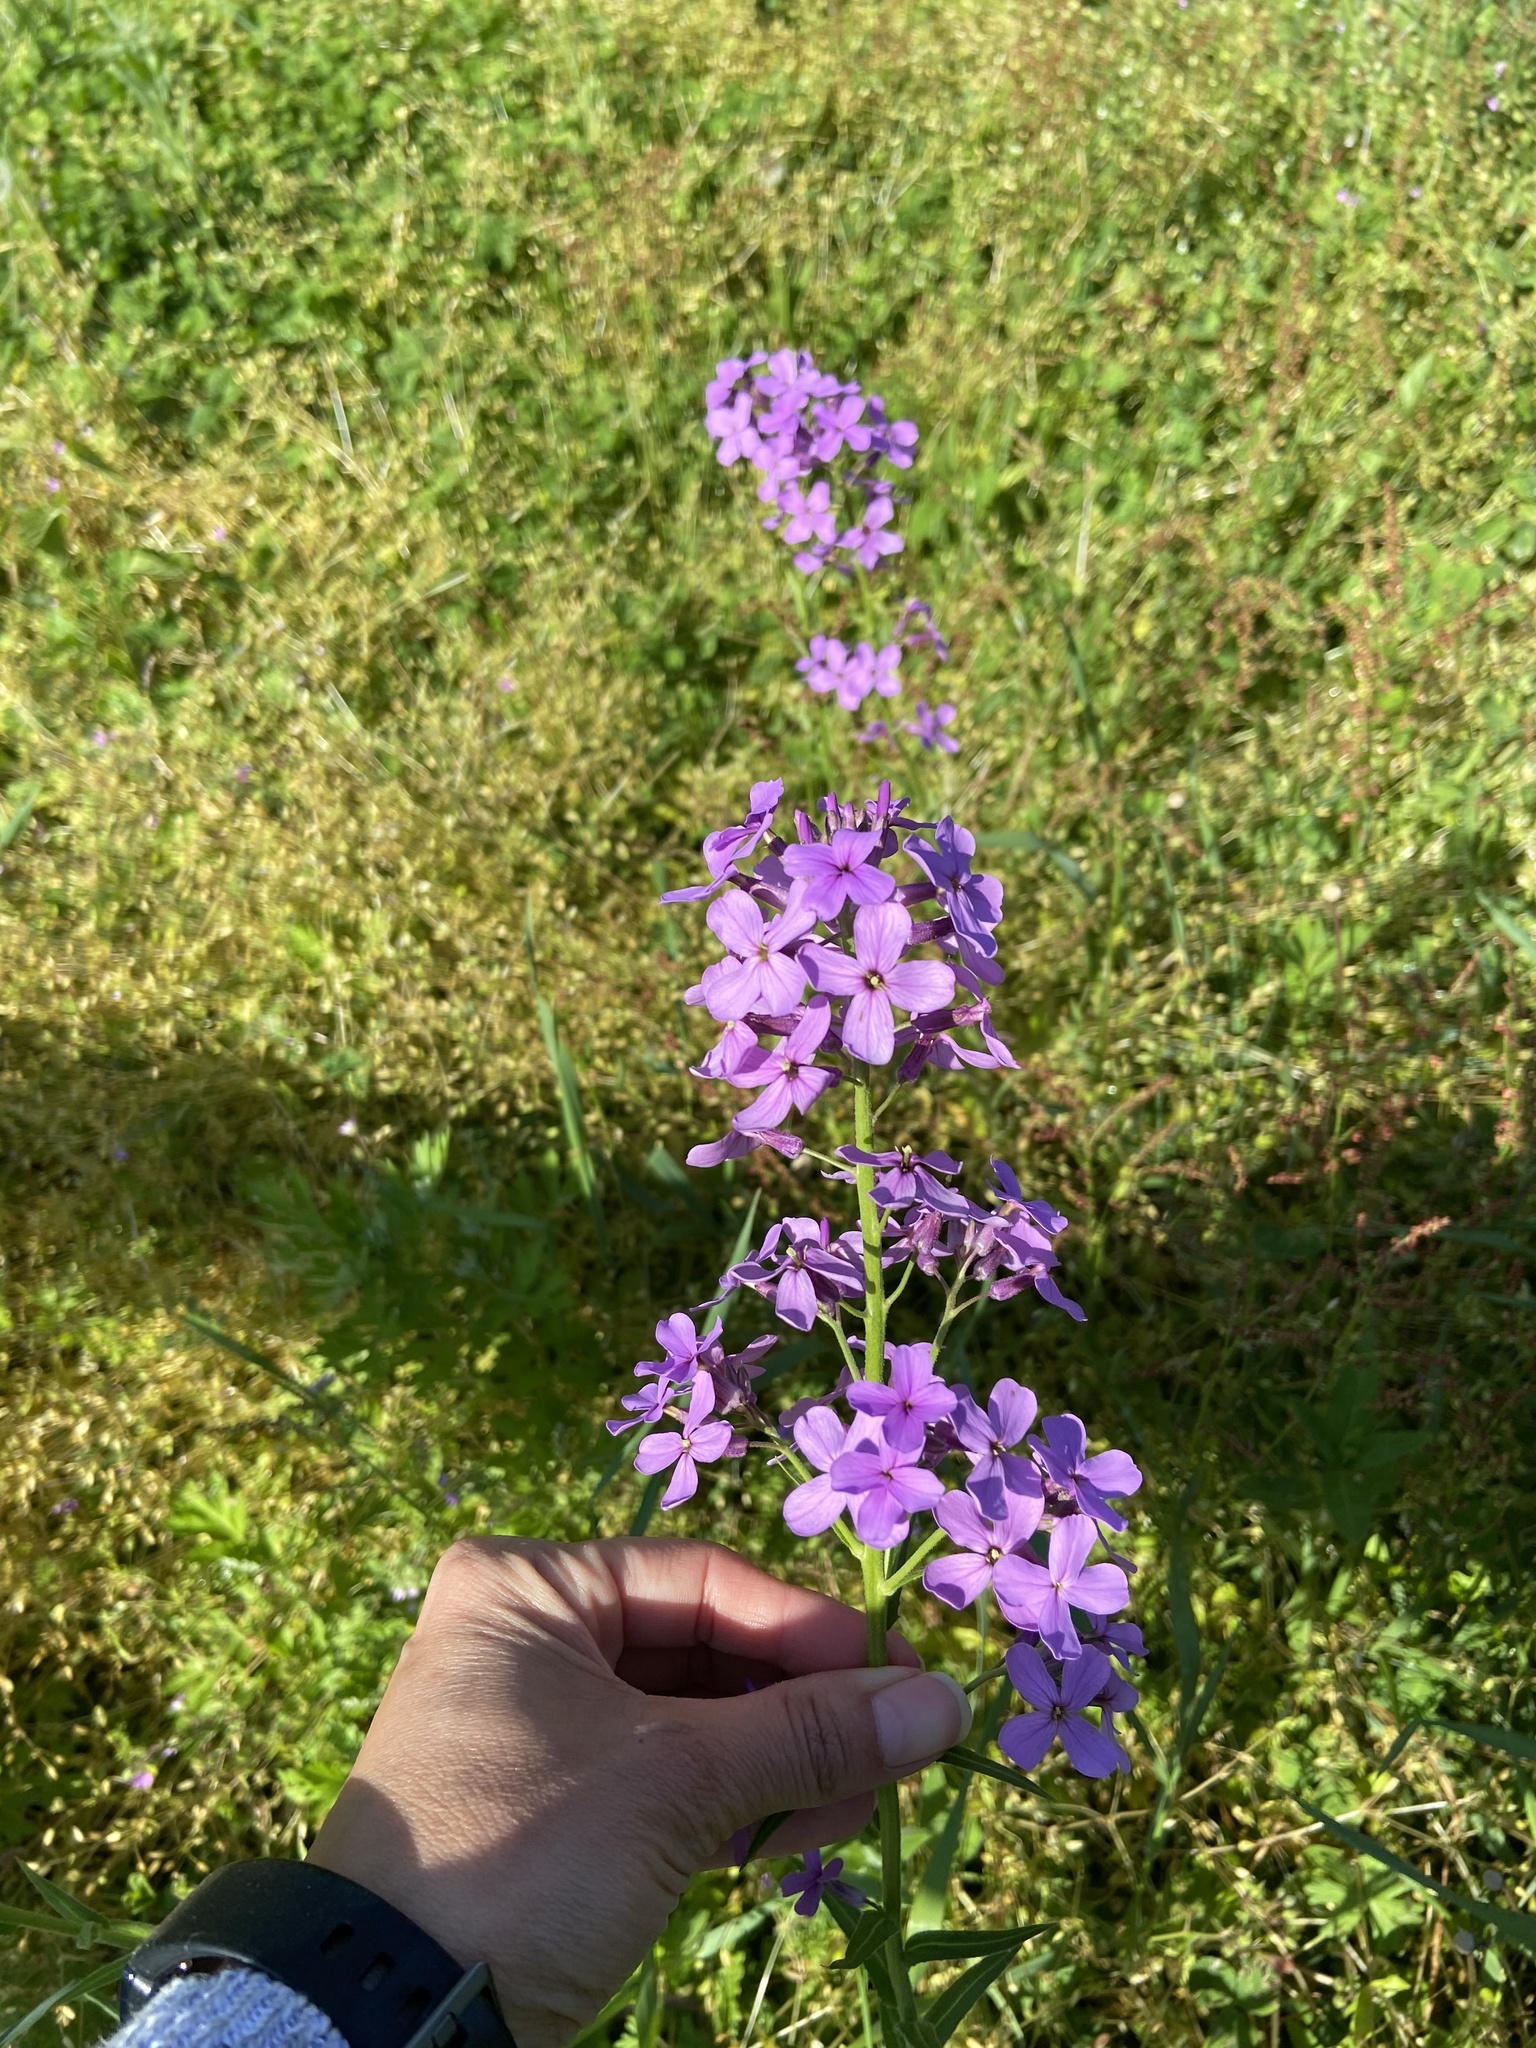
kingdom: Plantae
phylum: Tracheophyta
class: Magnoliopsida
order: Brassicales
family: Brassicaceae
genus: Hesperis
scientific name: Hesperis matronalis
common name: Dame's-violet
